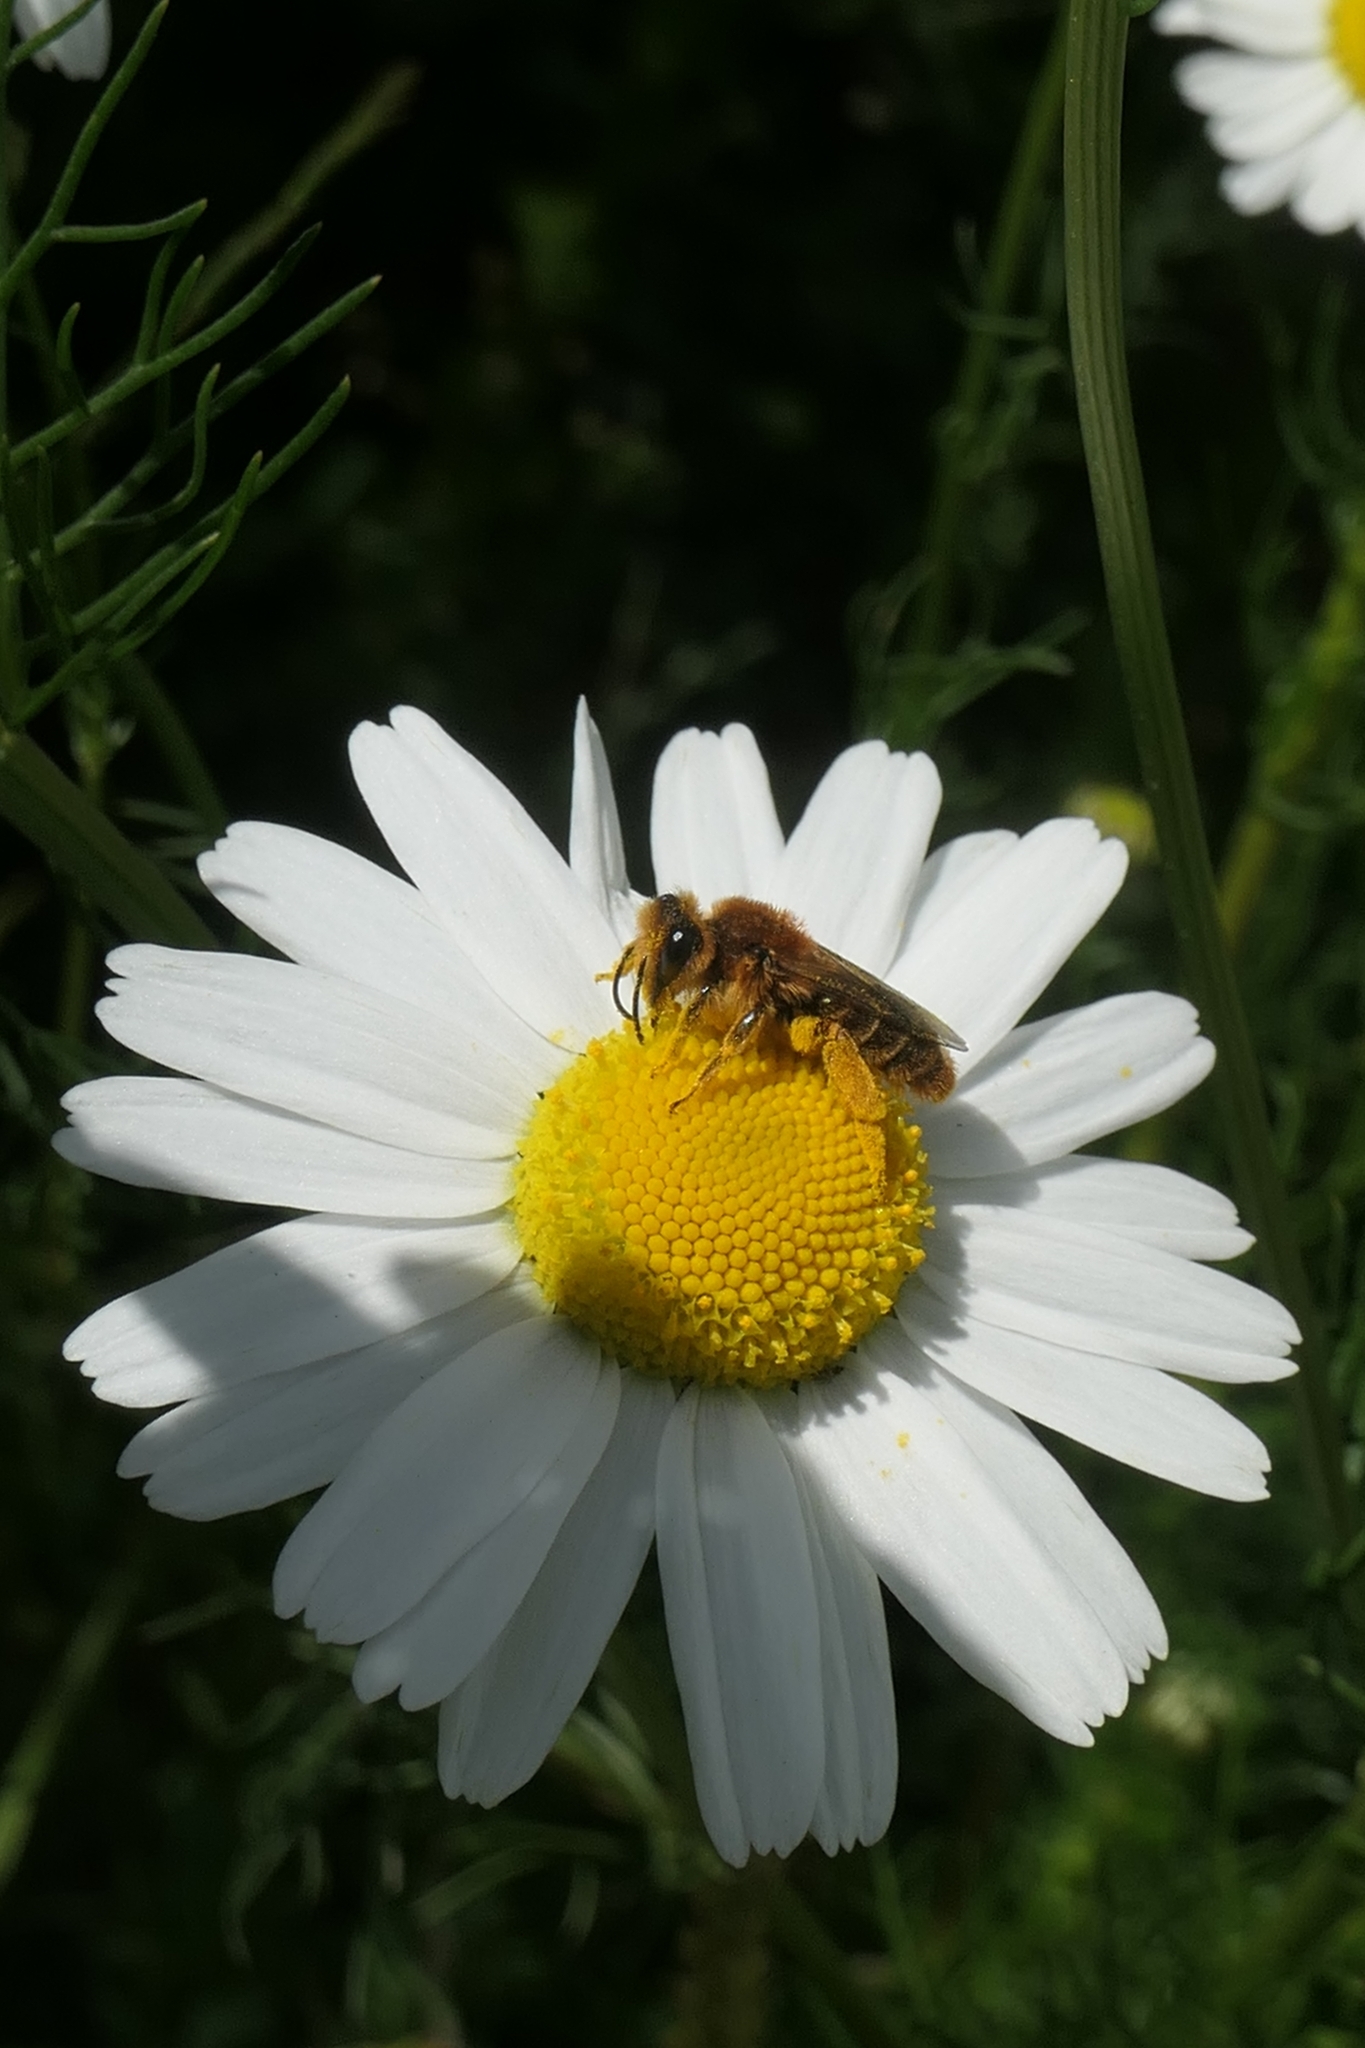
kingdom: Animalia
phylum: Arthropoda
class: Insecta
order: Hymenoptera
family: Colletidae
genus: Leioproctus
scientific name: Leioproctus fulvescens
